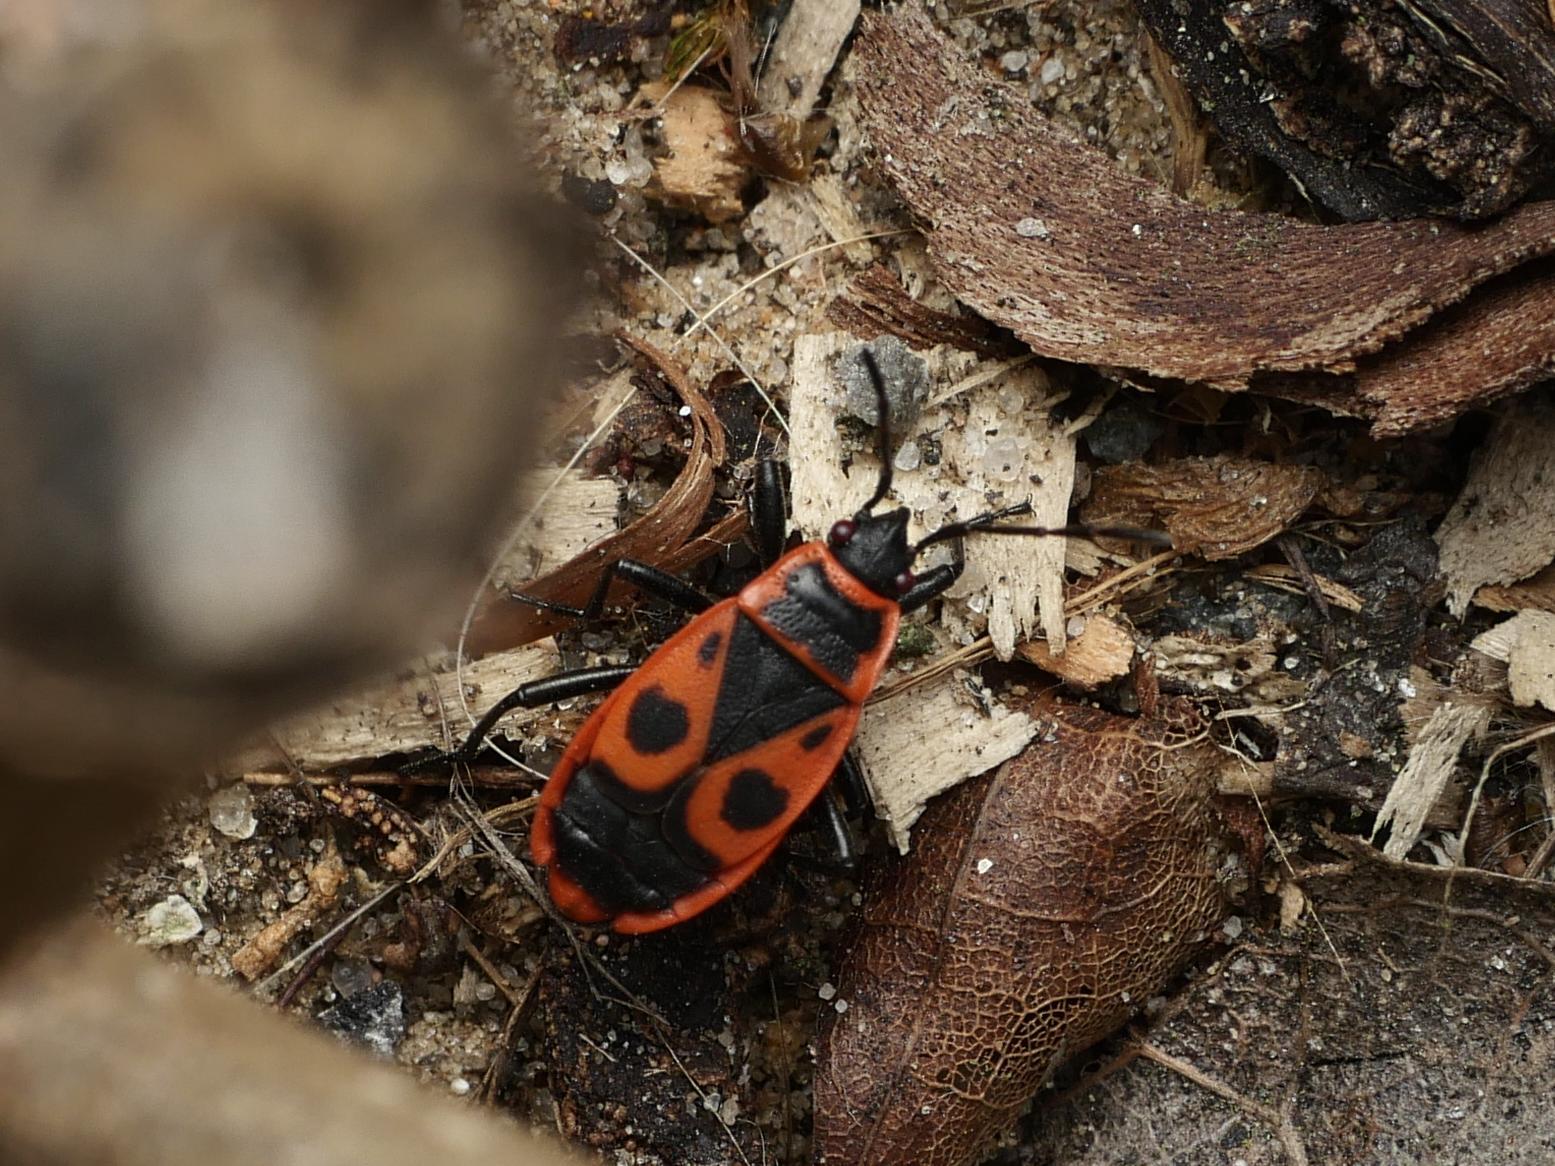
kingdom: Animalia
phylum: Arthropoda
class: Insecta
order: Hemiptera
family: Pyrrhocoridae
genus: Pyrrhocoris
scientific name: Pyrrhocoris apterus
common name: Firebug
